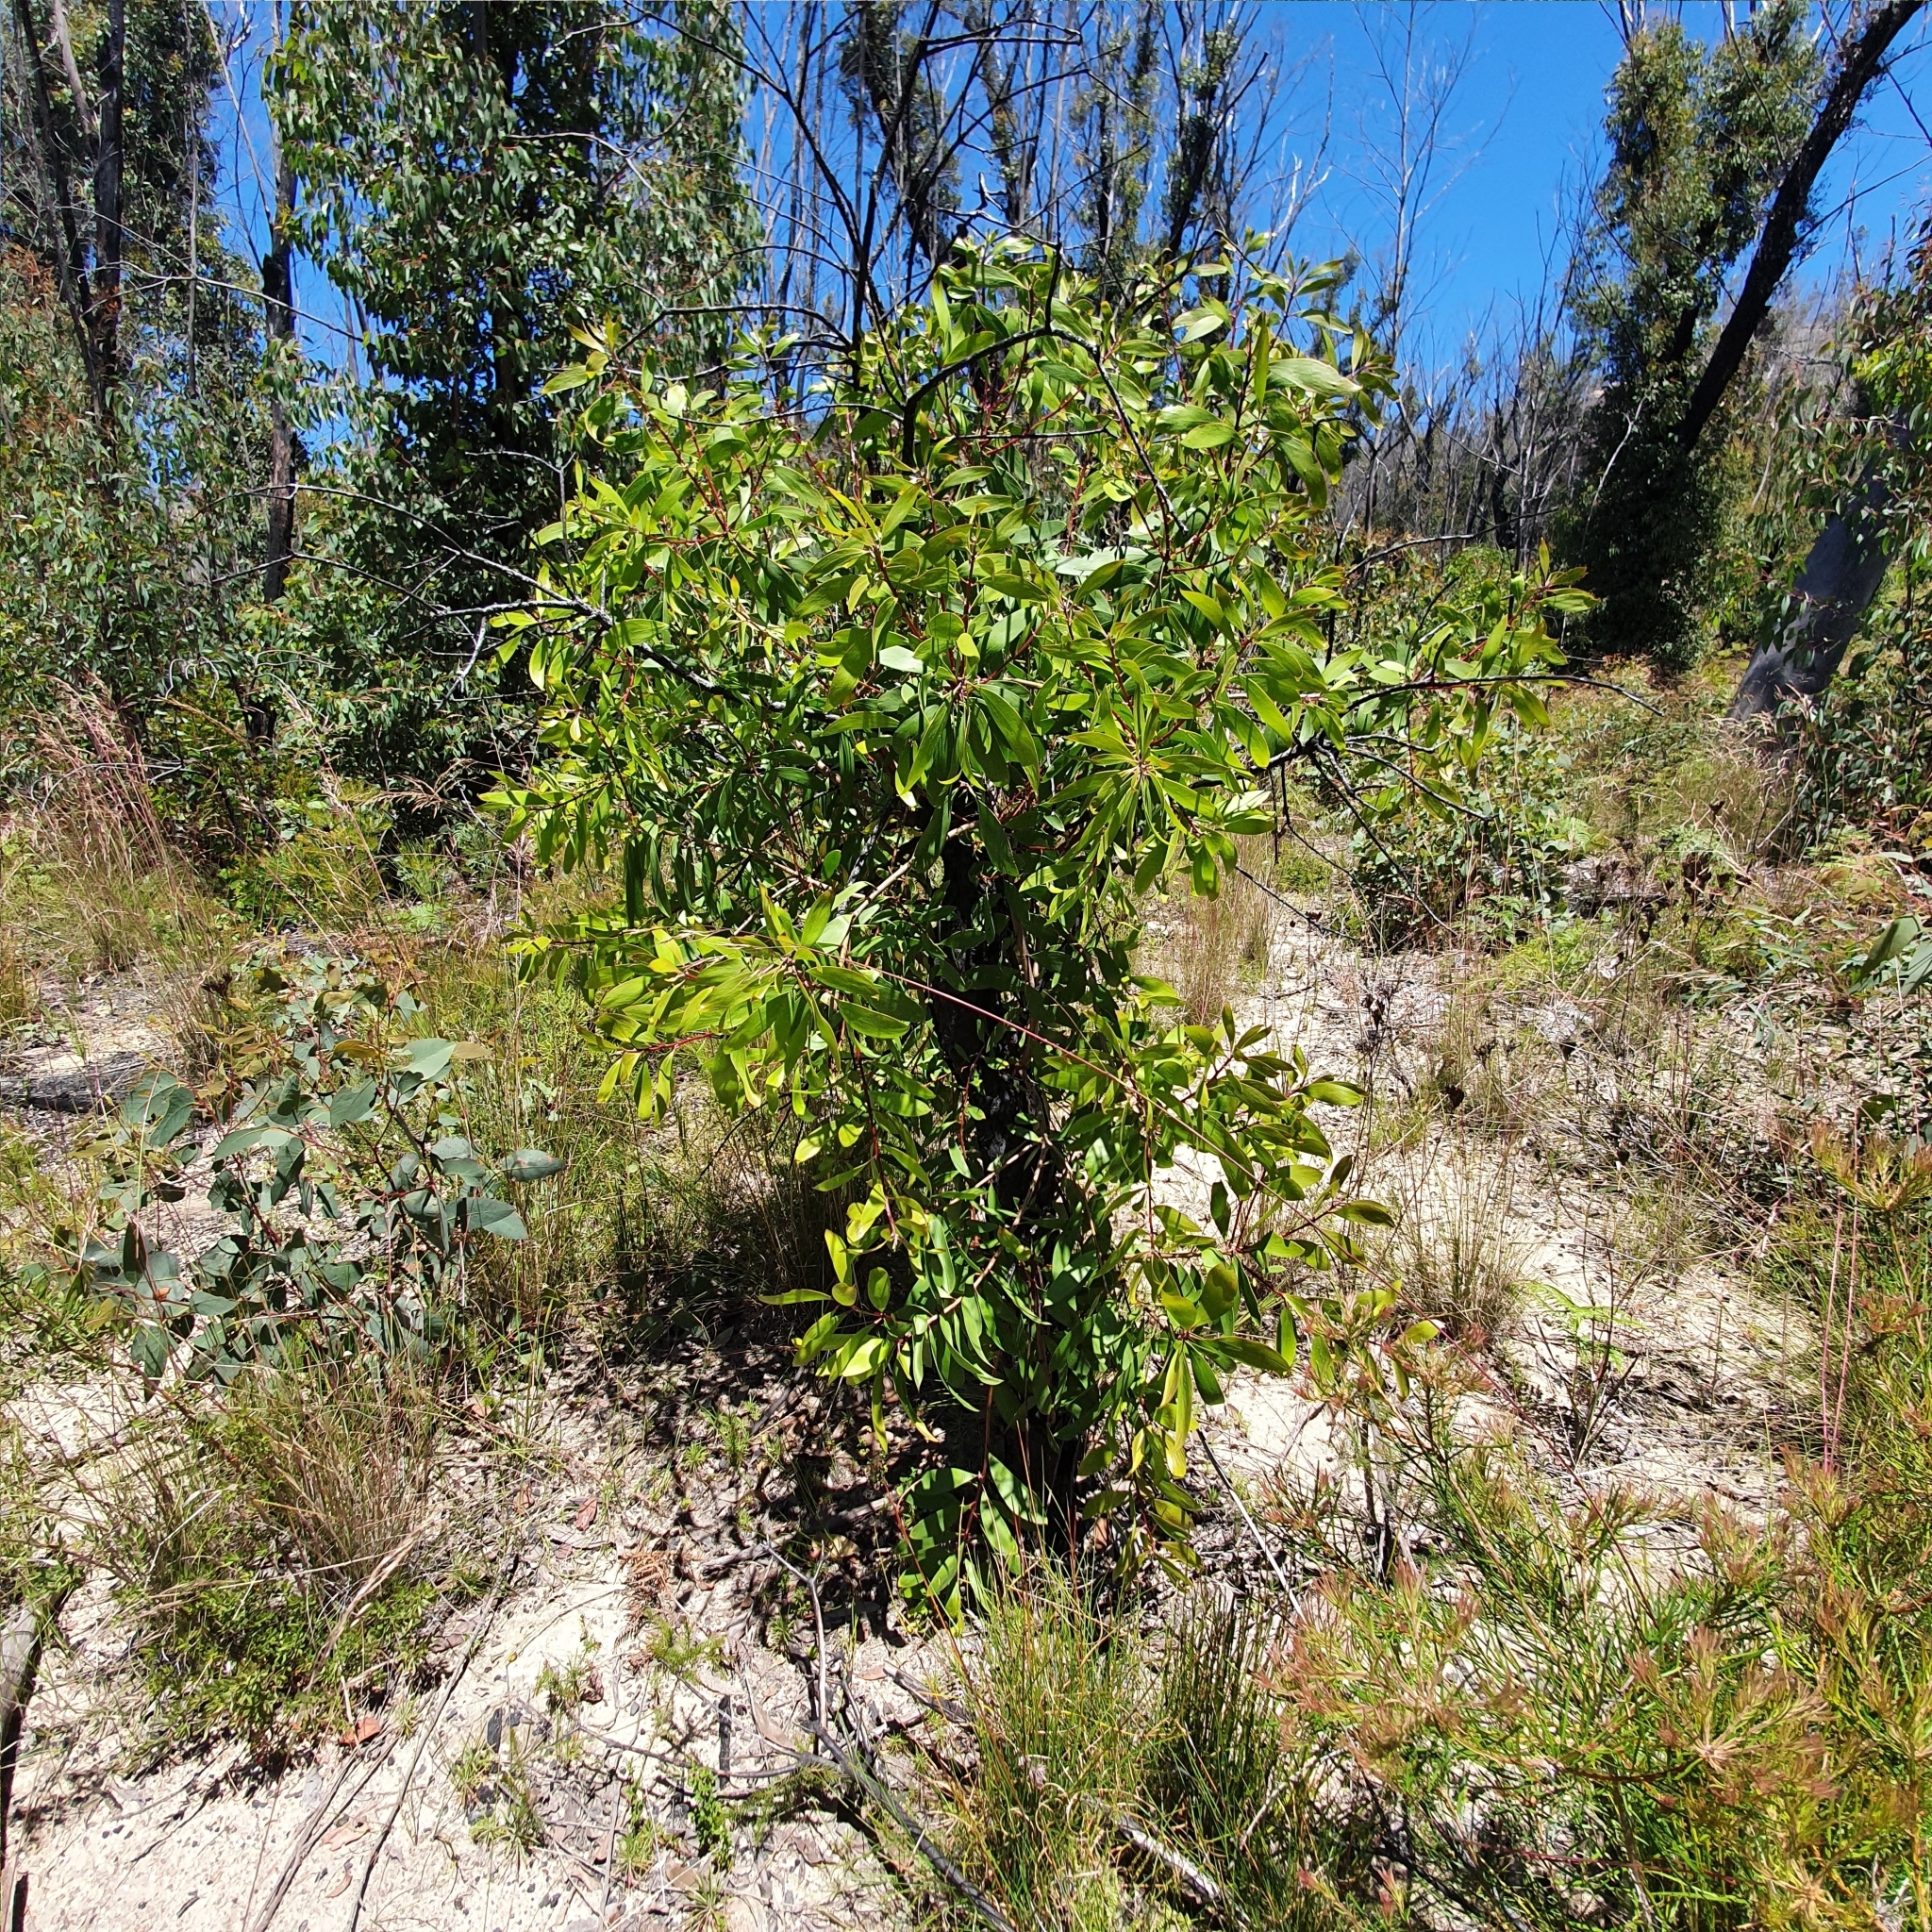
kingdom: Plantae
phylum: Tracheophyta
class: Magnoliopsida
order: Proteales
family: Proteaceae
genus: Persoonia
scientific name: Persoonia levis
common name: Smooth geebung
